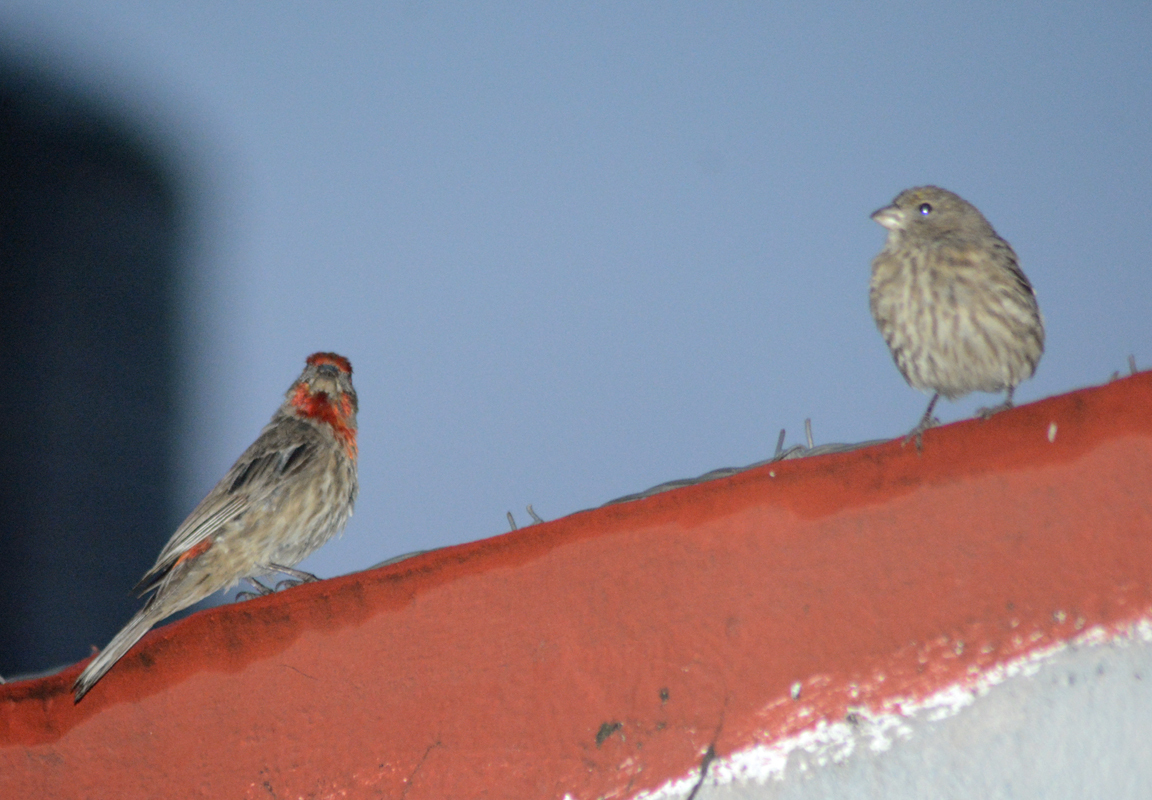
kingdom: Animalia
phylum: Chordata
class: Aves
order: Passeriformes
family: Fringillidae
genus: Haemorhous
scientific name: Haemorhous mexicanus
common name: House finch
